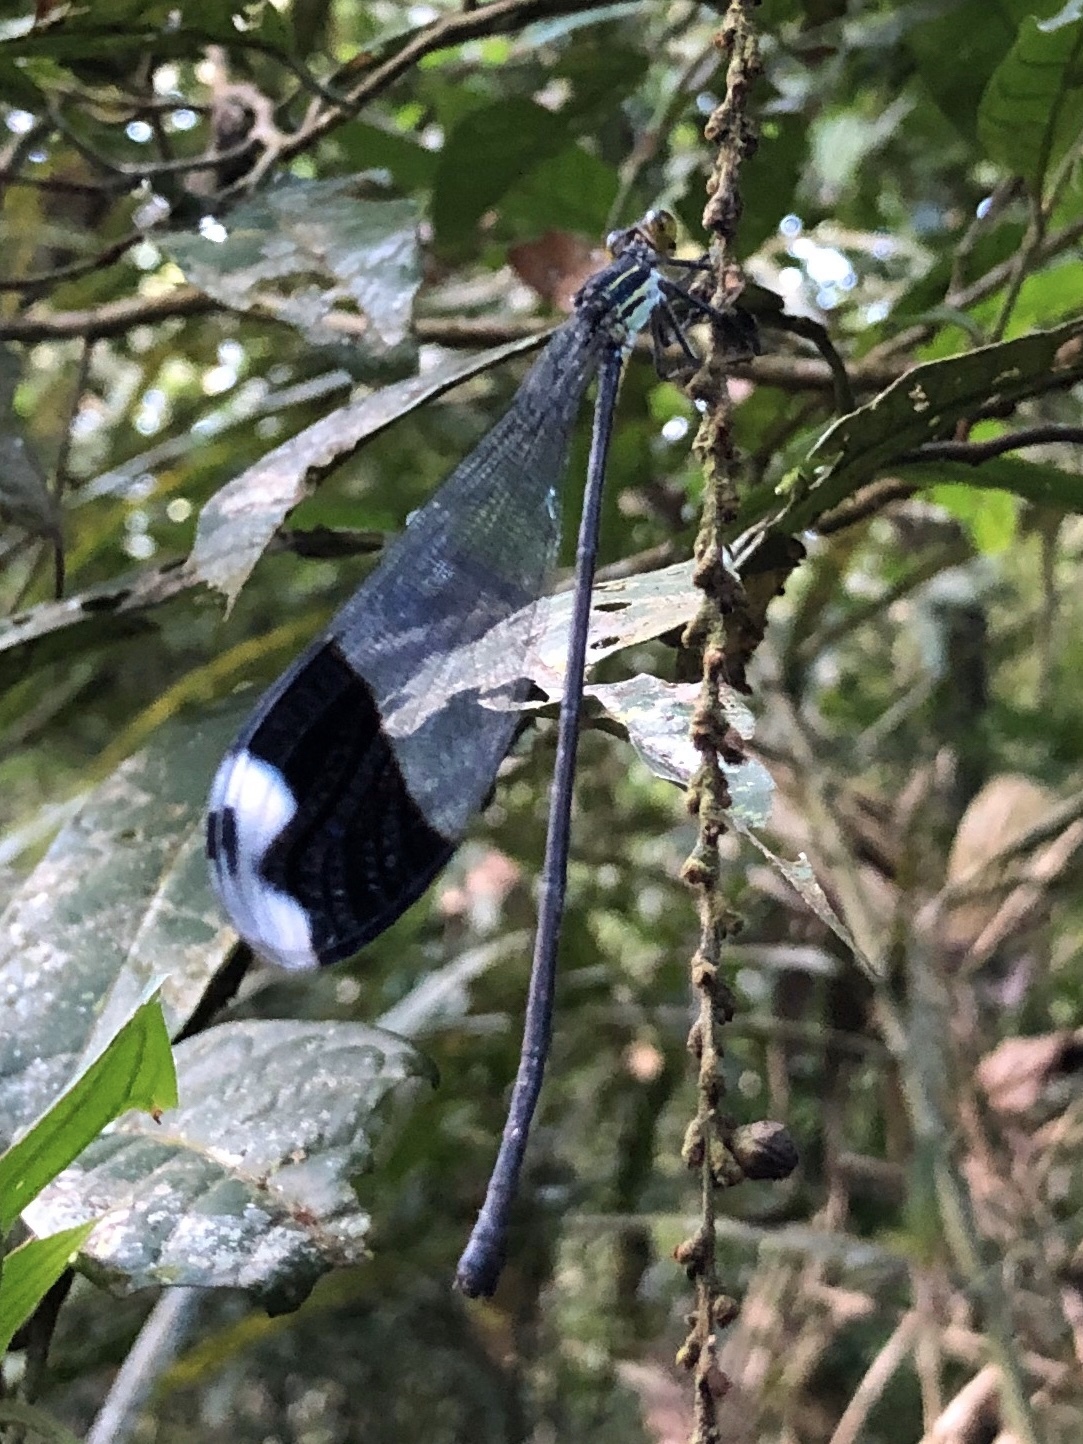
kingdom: Animalia
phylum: Arthropoda
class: Insecta
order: Odonata
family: Coenagrionidae
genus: Megaloprepus
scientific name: Megaloprepus caerulatus
